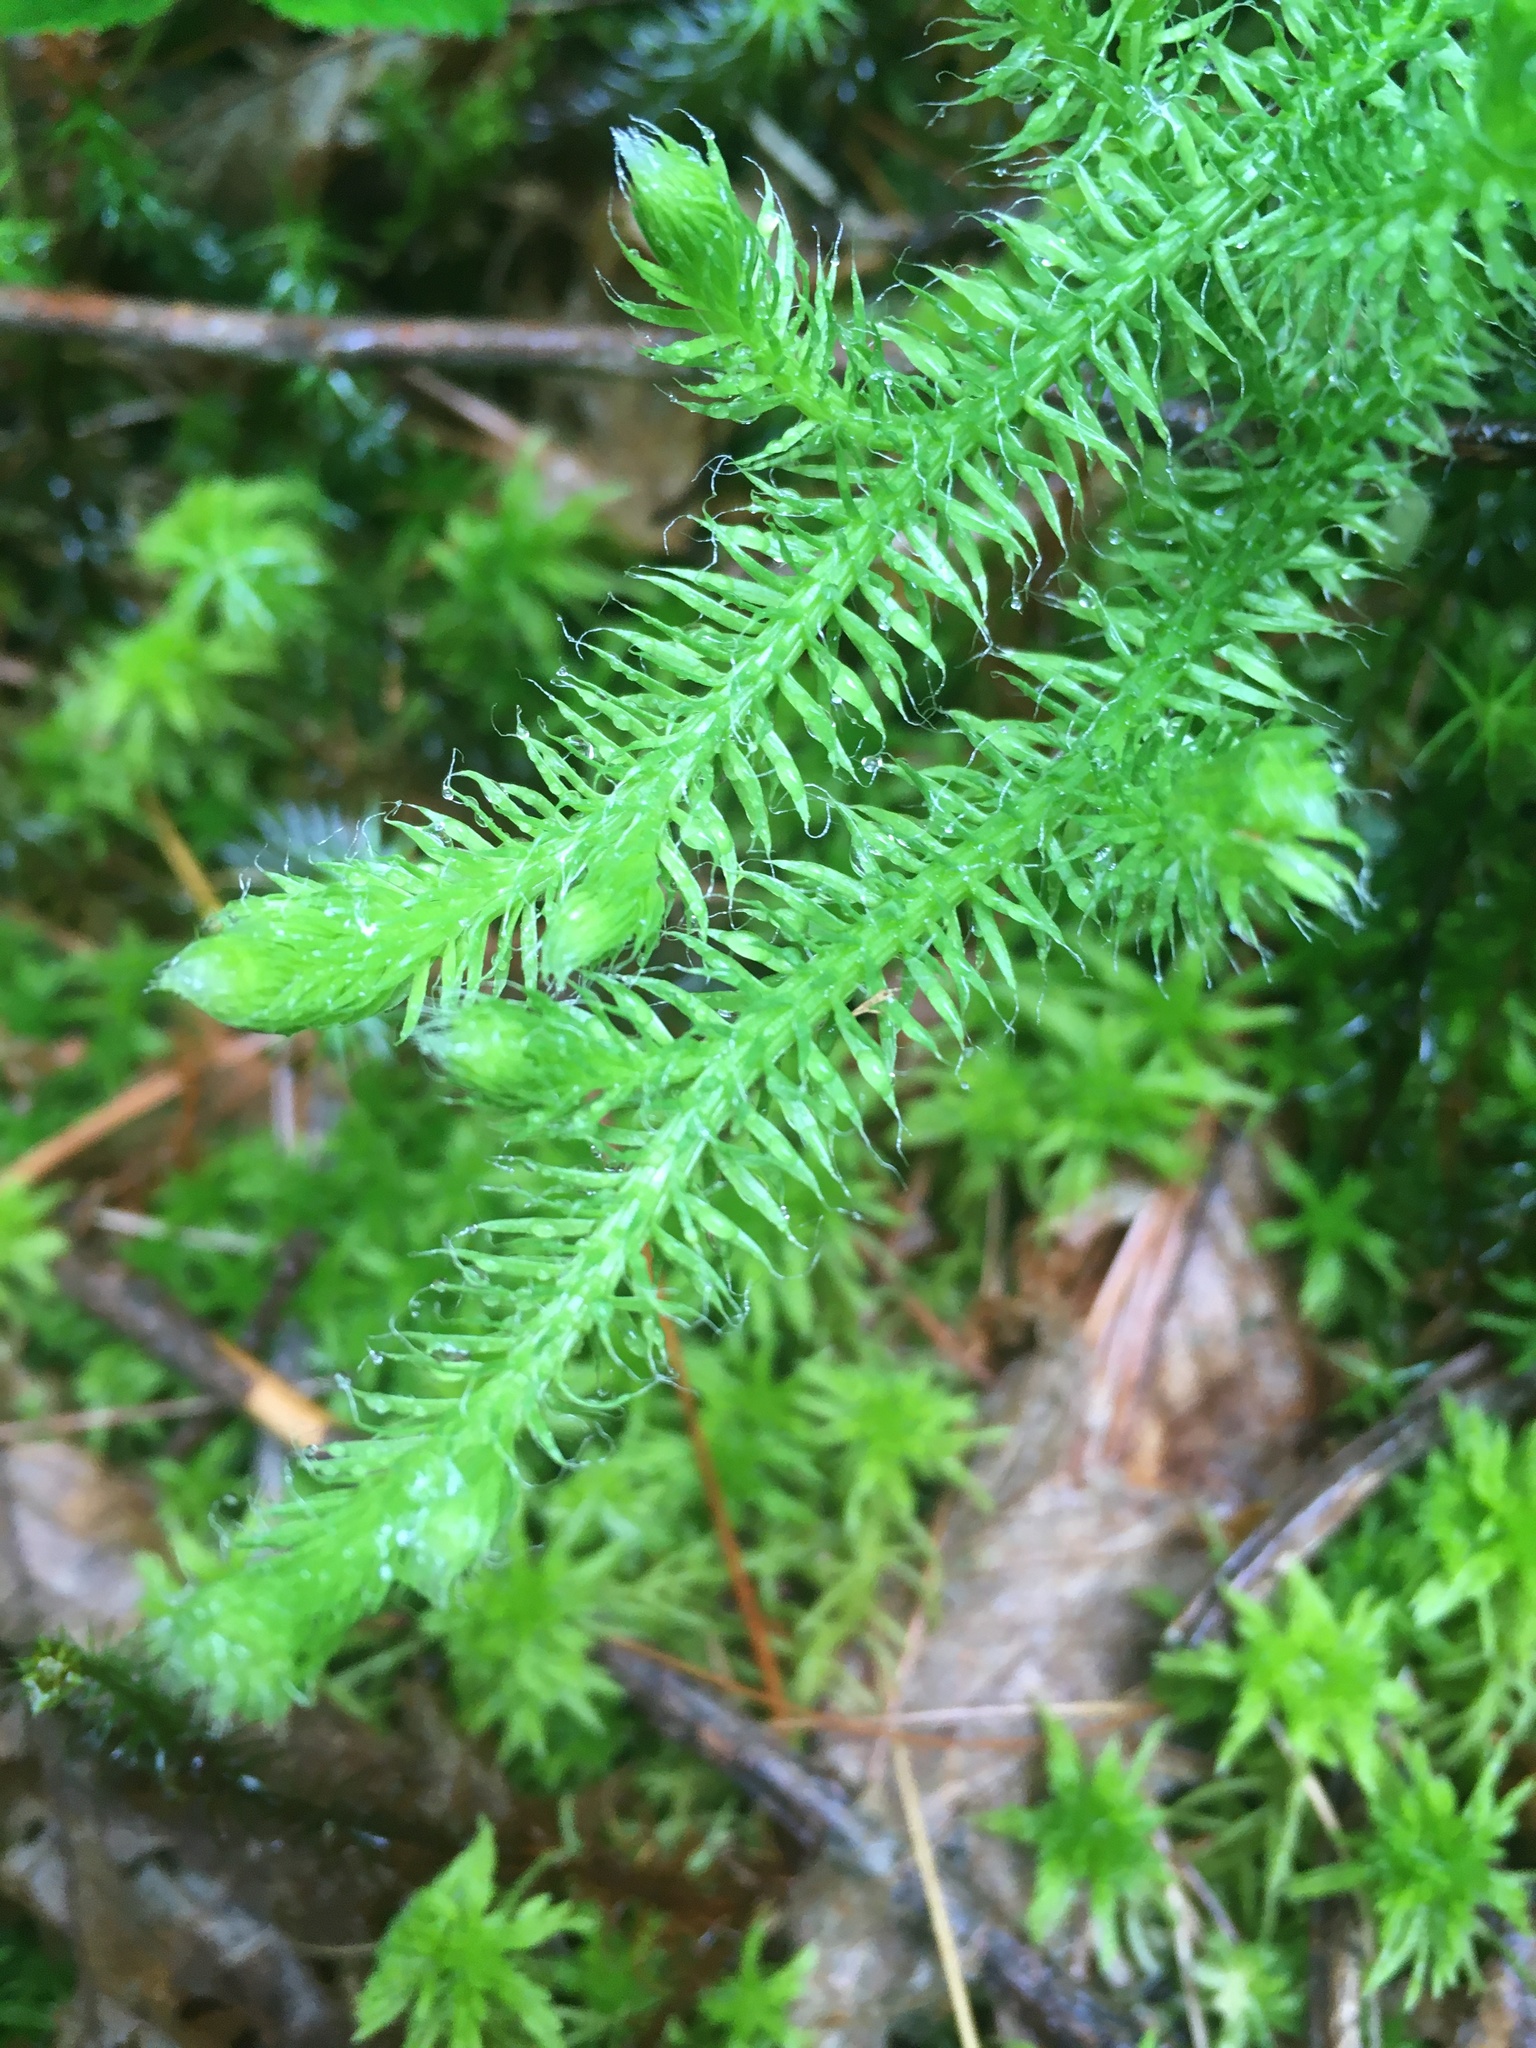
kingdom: Plantae
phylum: Tracheophyta
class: Lycopodiopsida
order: Lycopodiales
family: Lycopodiaceae
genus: Lycopodium
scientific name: Lycopodium clavatum
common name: Stag's-horn clubmoss
